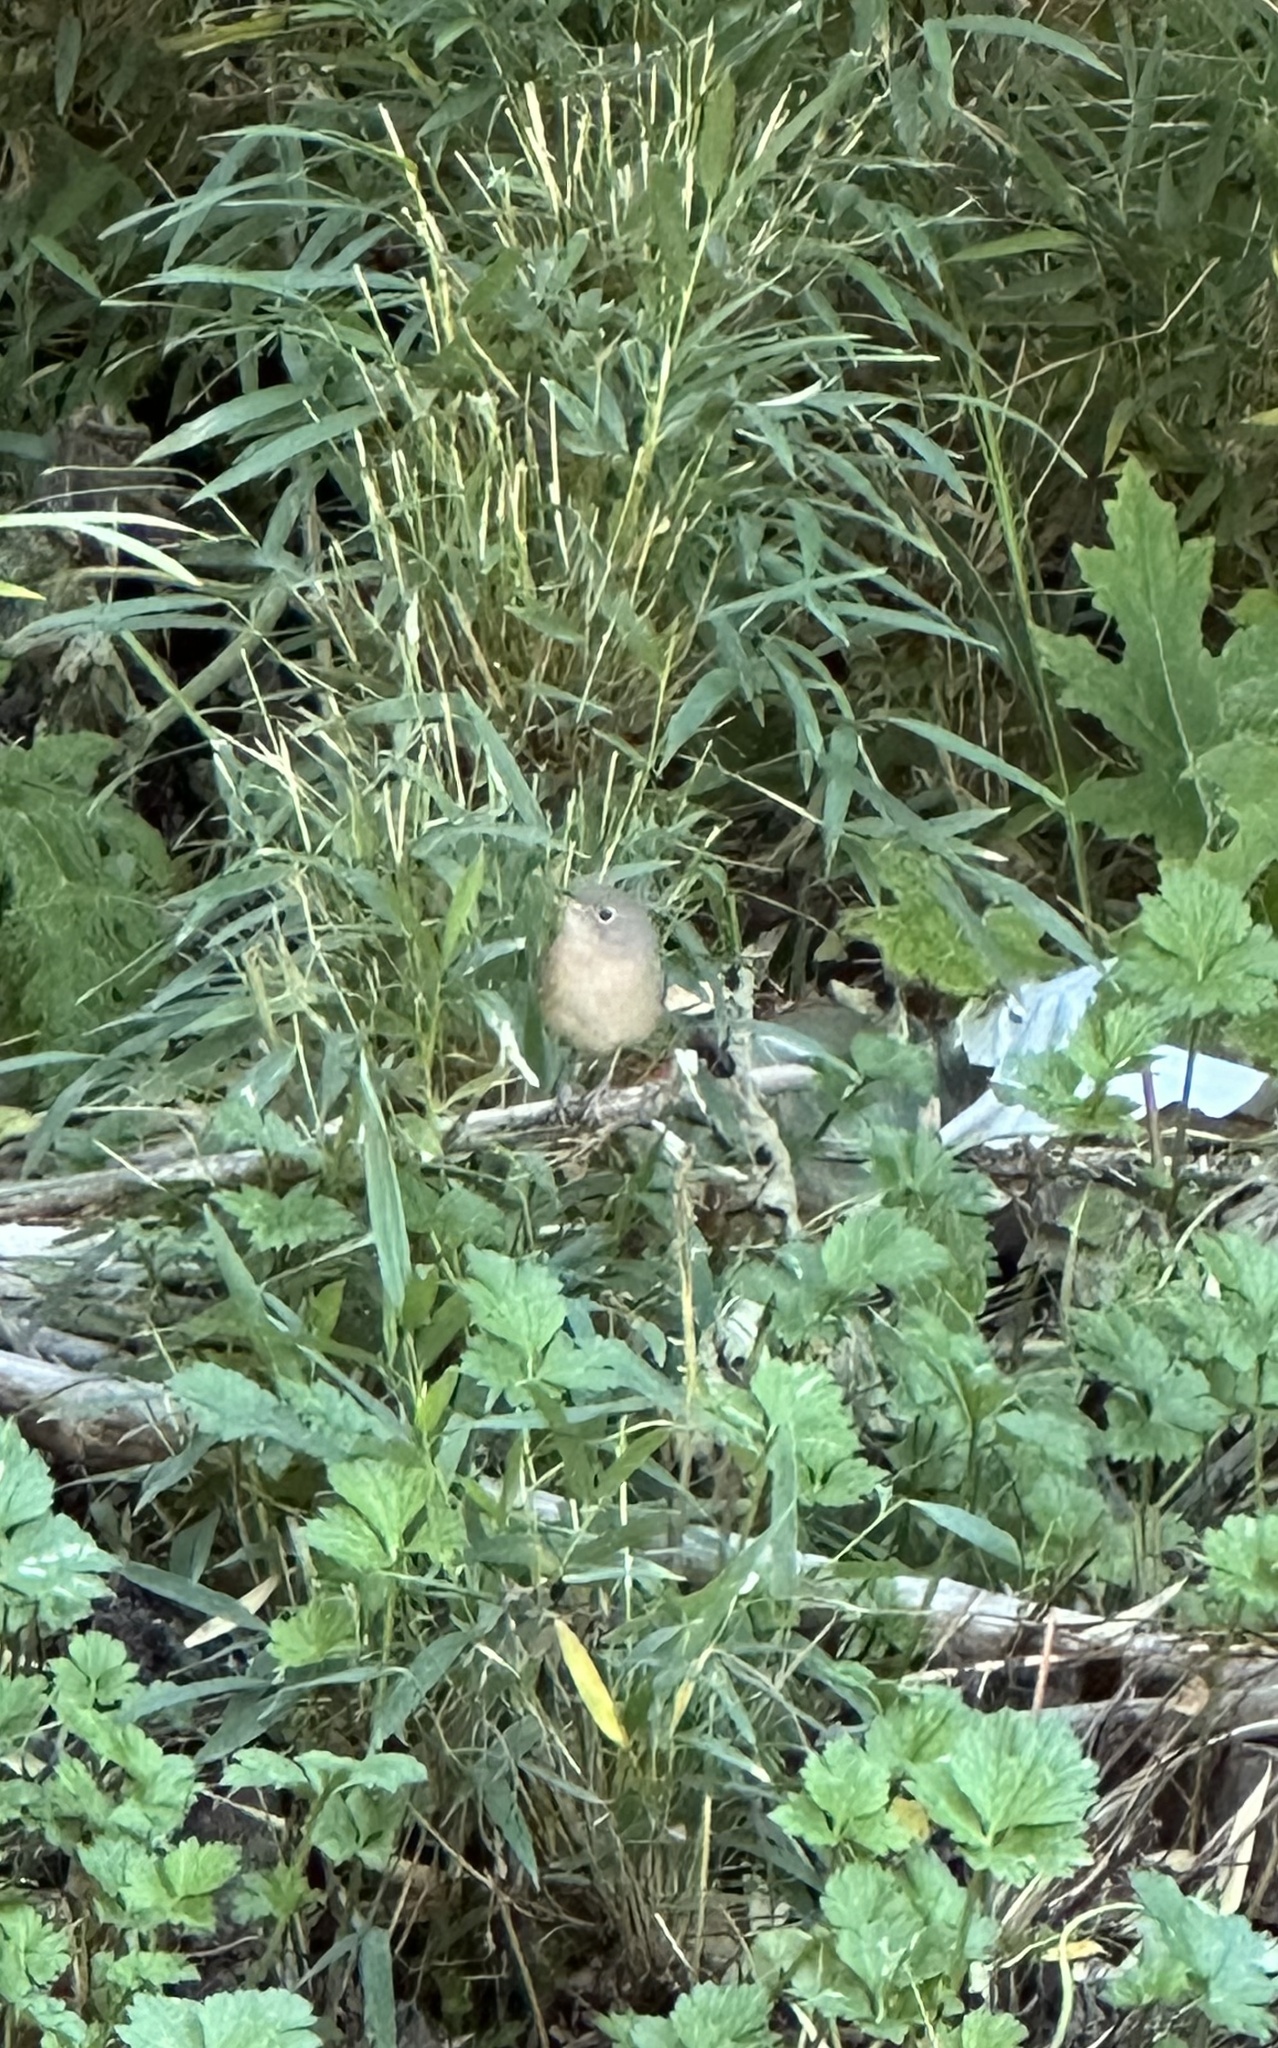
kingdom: Animalia
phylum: Chordata
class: Aves
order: Passeriformes
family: Troglodytidae
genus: Troglodytes
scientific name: Troglodytes aedon
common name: House wren
